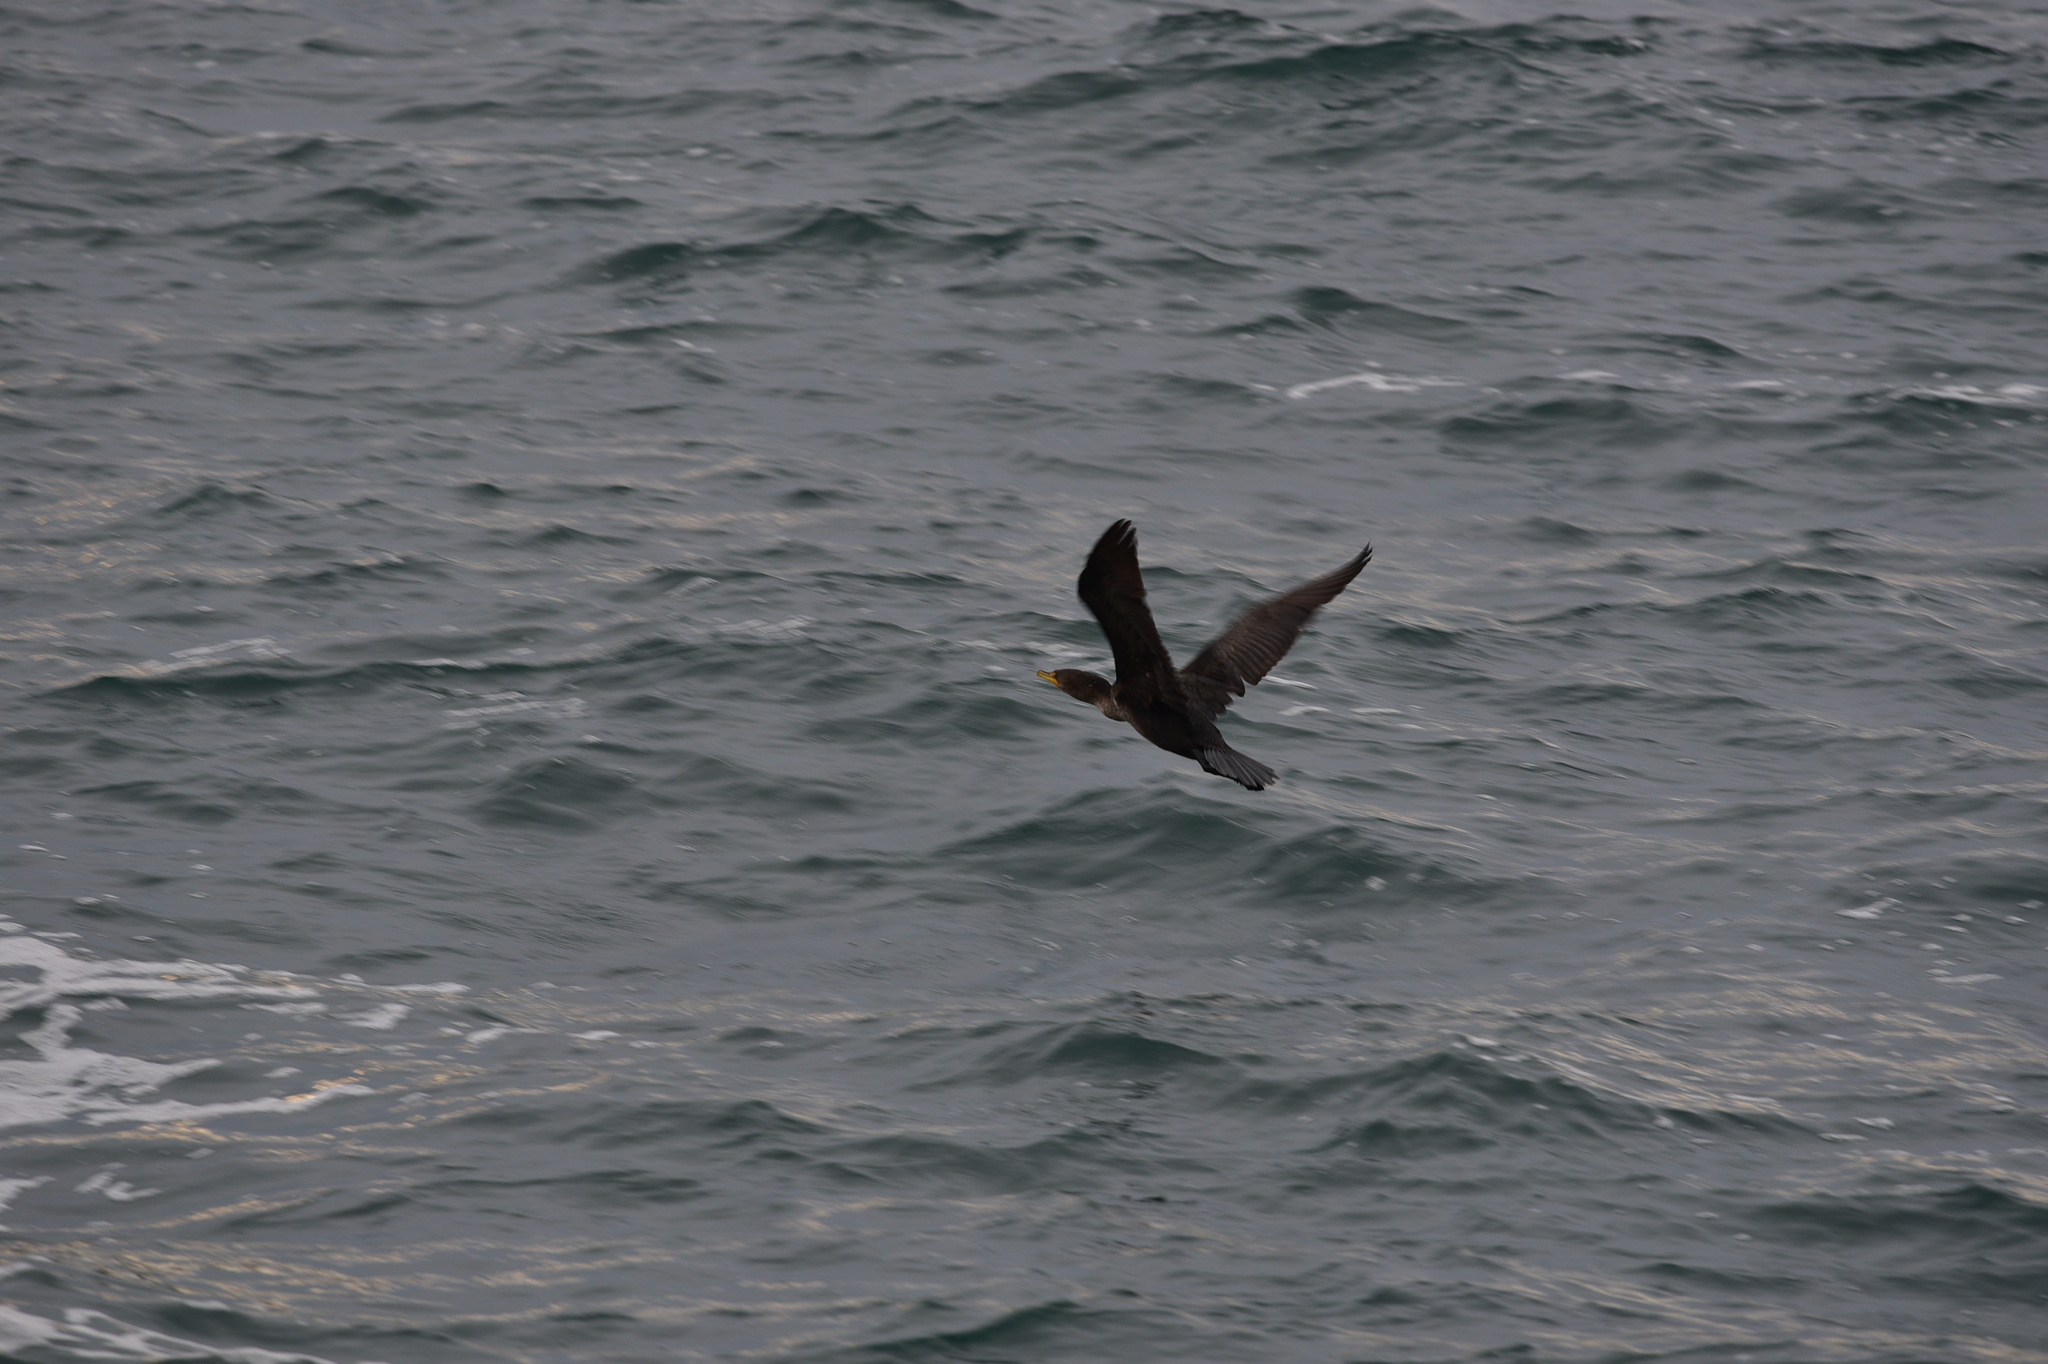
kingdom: Animalia
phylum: Chordata
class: Aves
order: Suliformes
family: Phalacrocoracidae
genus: Phalacrocorax
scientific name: Phalacrocorax auritus
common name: Double-crested cormorant
